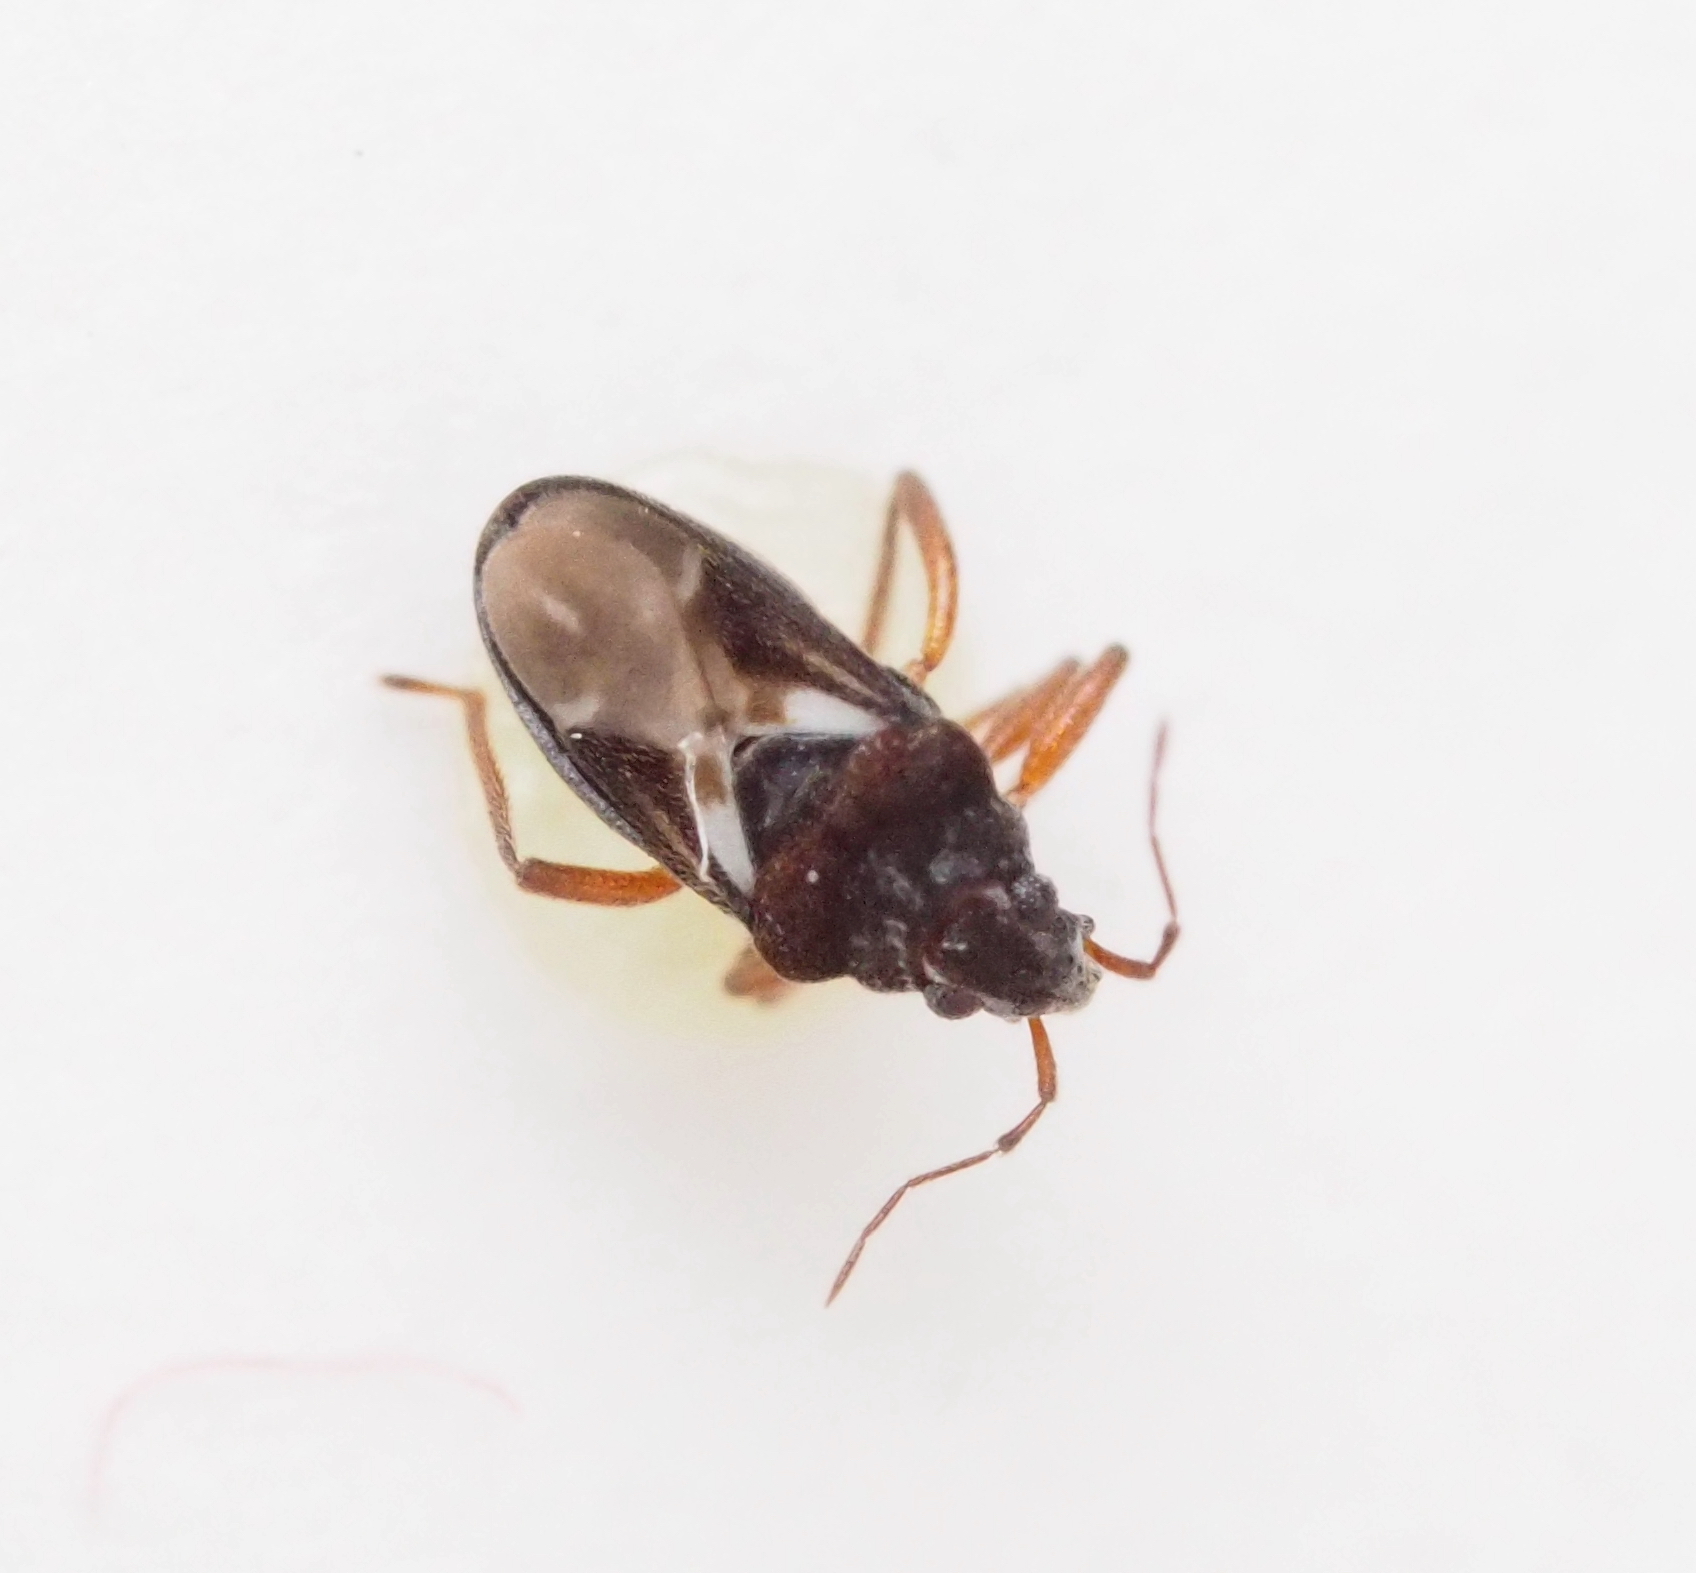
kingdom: Animalia
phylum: Arthropoda
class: Insecta
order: Hemiptera
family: Hebridae
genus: Hebrus
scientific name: Hebrus pusillus
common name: Semi-aquatic bugs
